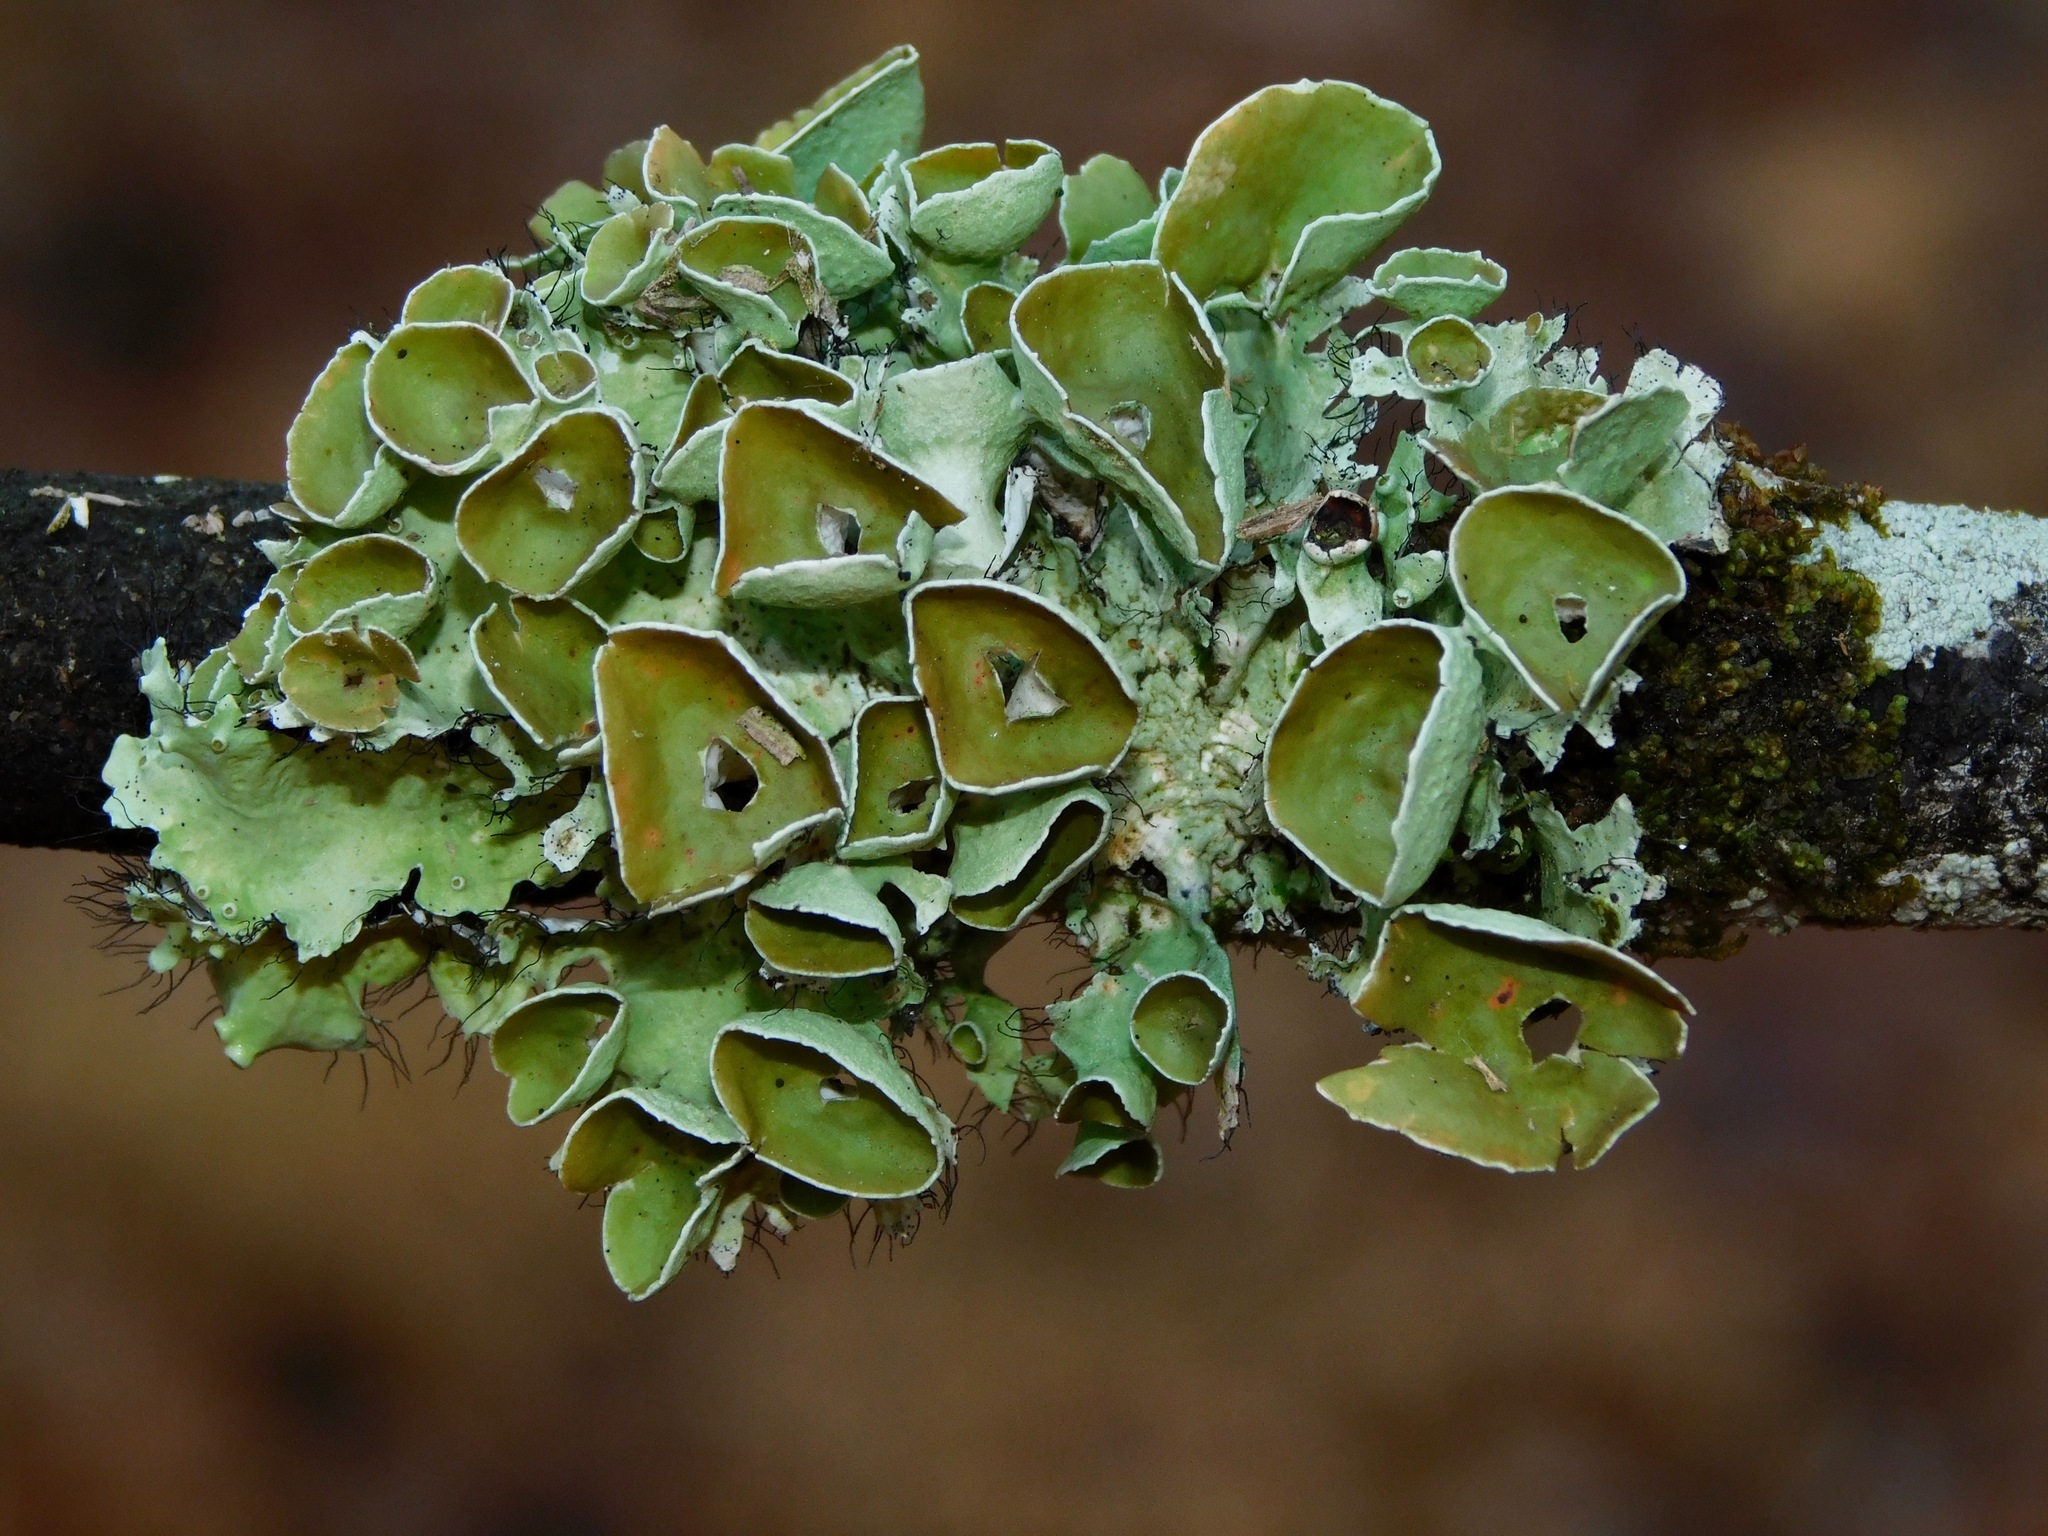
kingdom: Fungi
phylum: Ascomycota
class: Lecanoromycetes
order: Lecanorales
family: Parmeliaceae
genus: Parmotrema
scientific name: Parmotrema subrigidum
